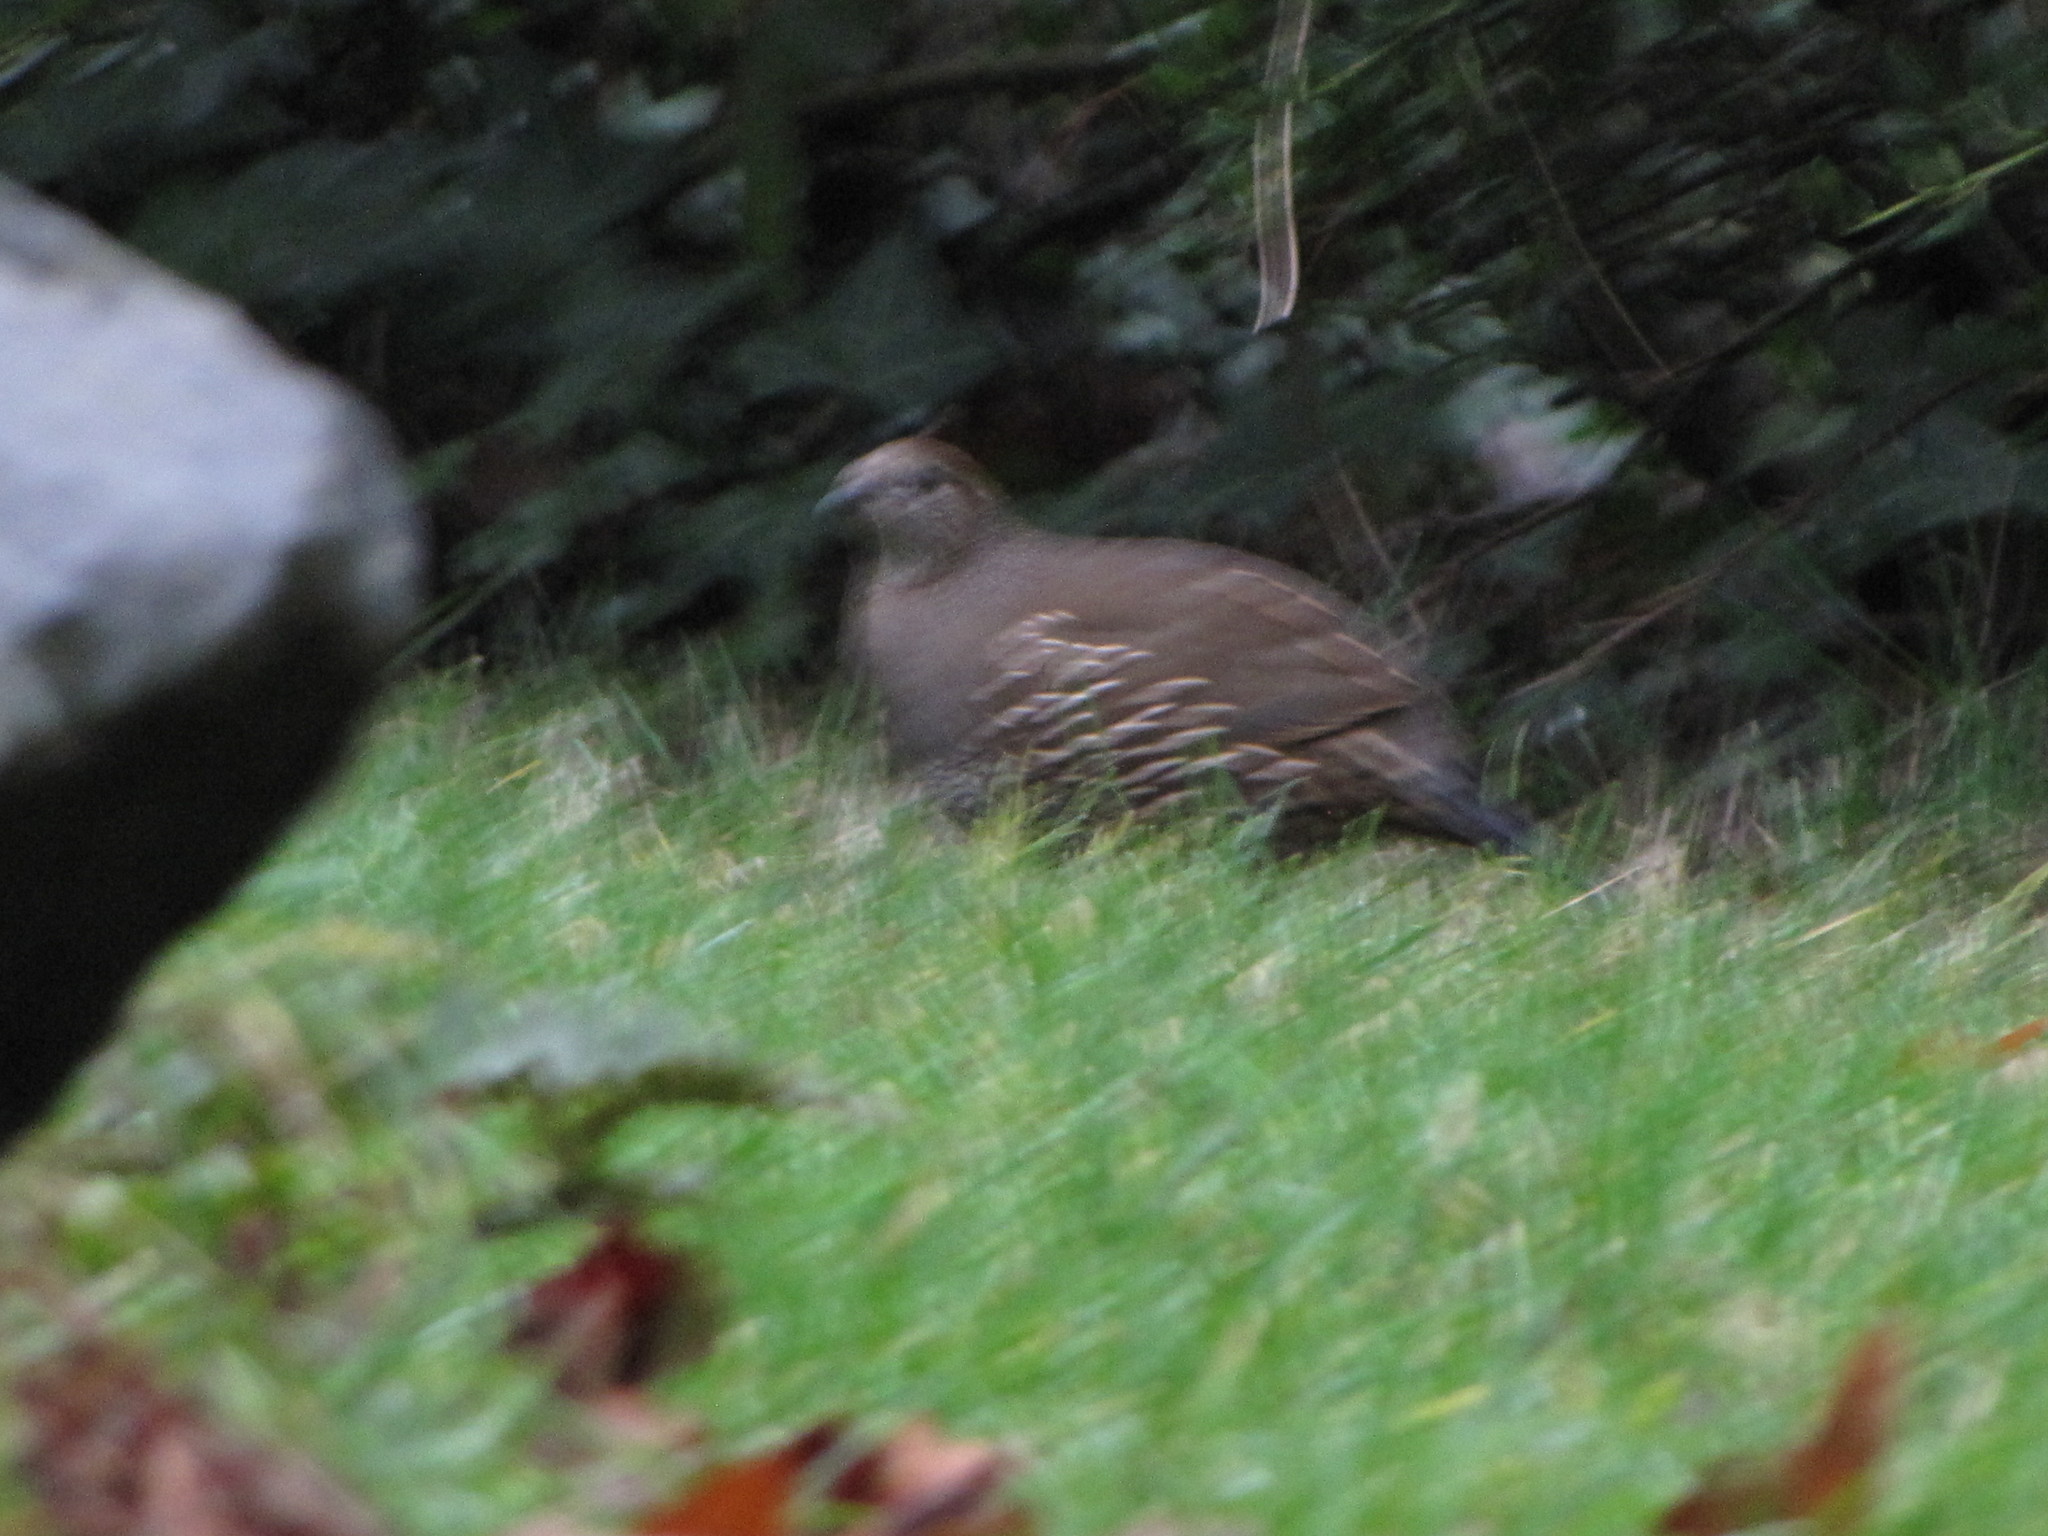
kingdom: Animalia
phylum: Chordata
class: Aves
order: Galliformes
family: Odontophoridae
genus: Callipepla
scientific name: Callipepla californica
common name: California quail
